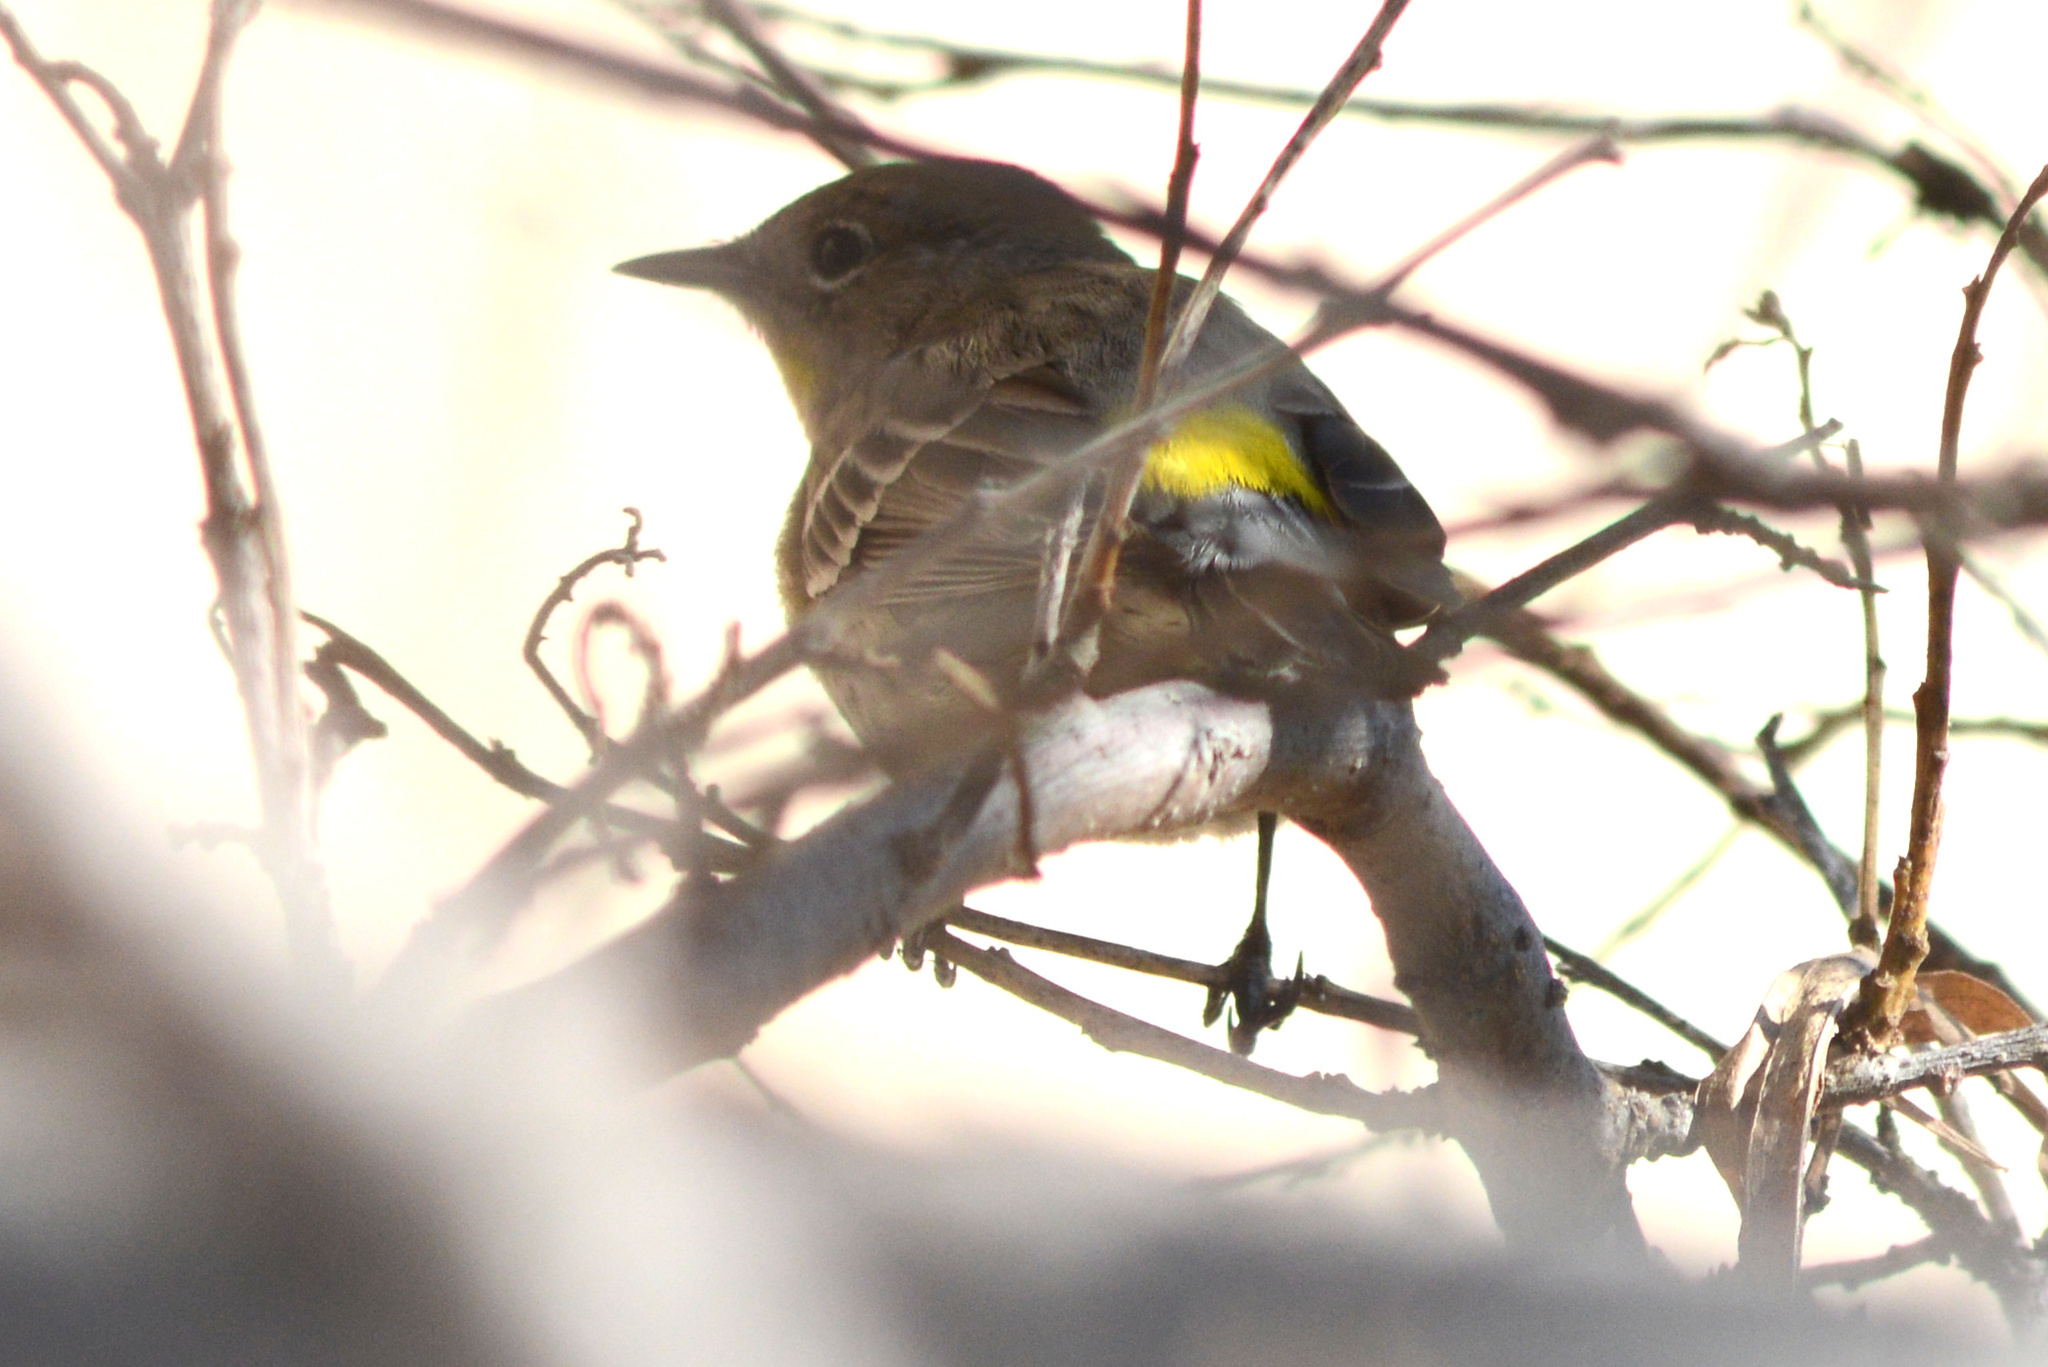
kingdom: Animalia
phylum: Chordata
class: Aves
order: Passeriformes
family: Parulidae
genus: Setophaga
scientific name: Setophaga auduboni
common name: Audubon's warbler
